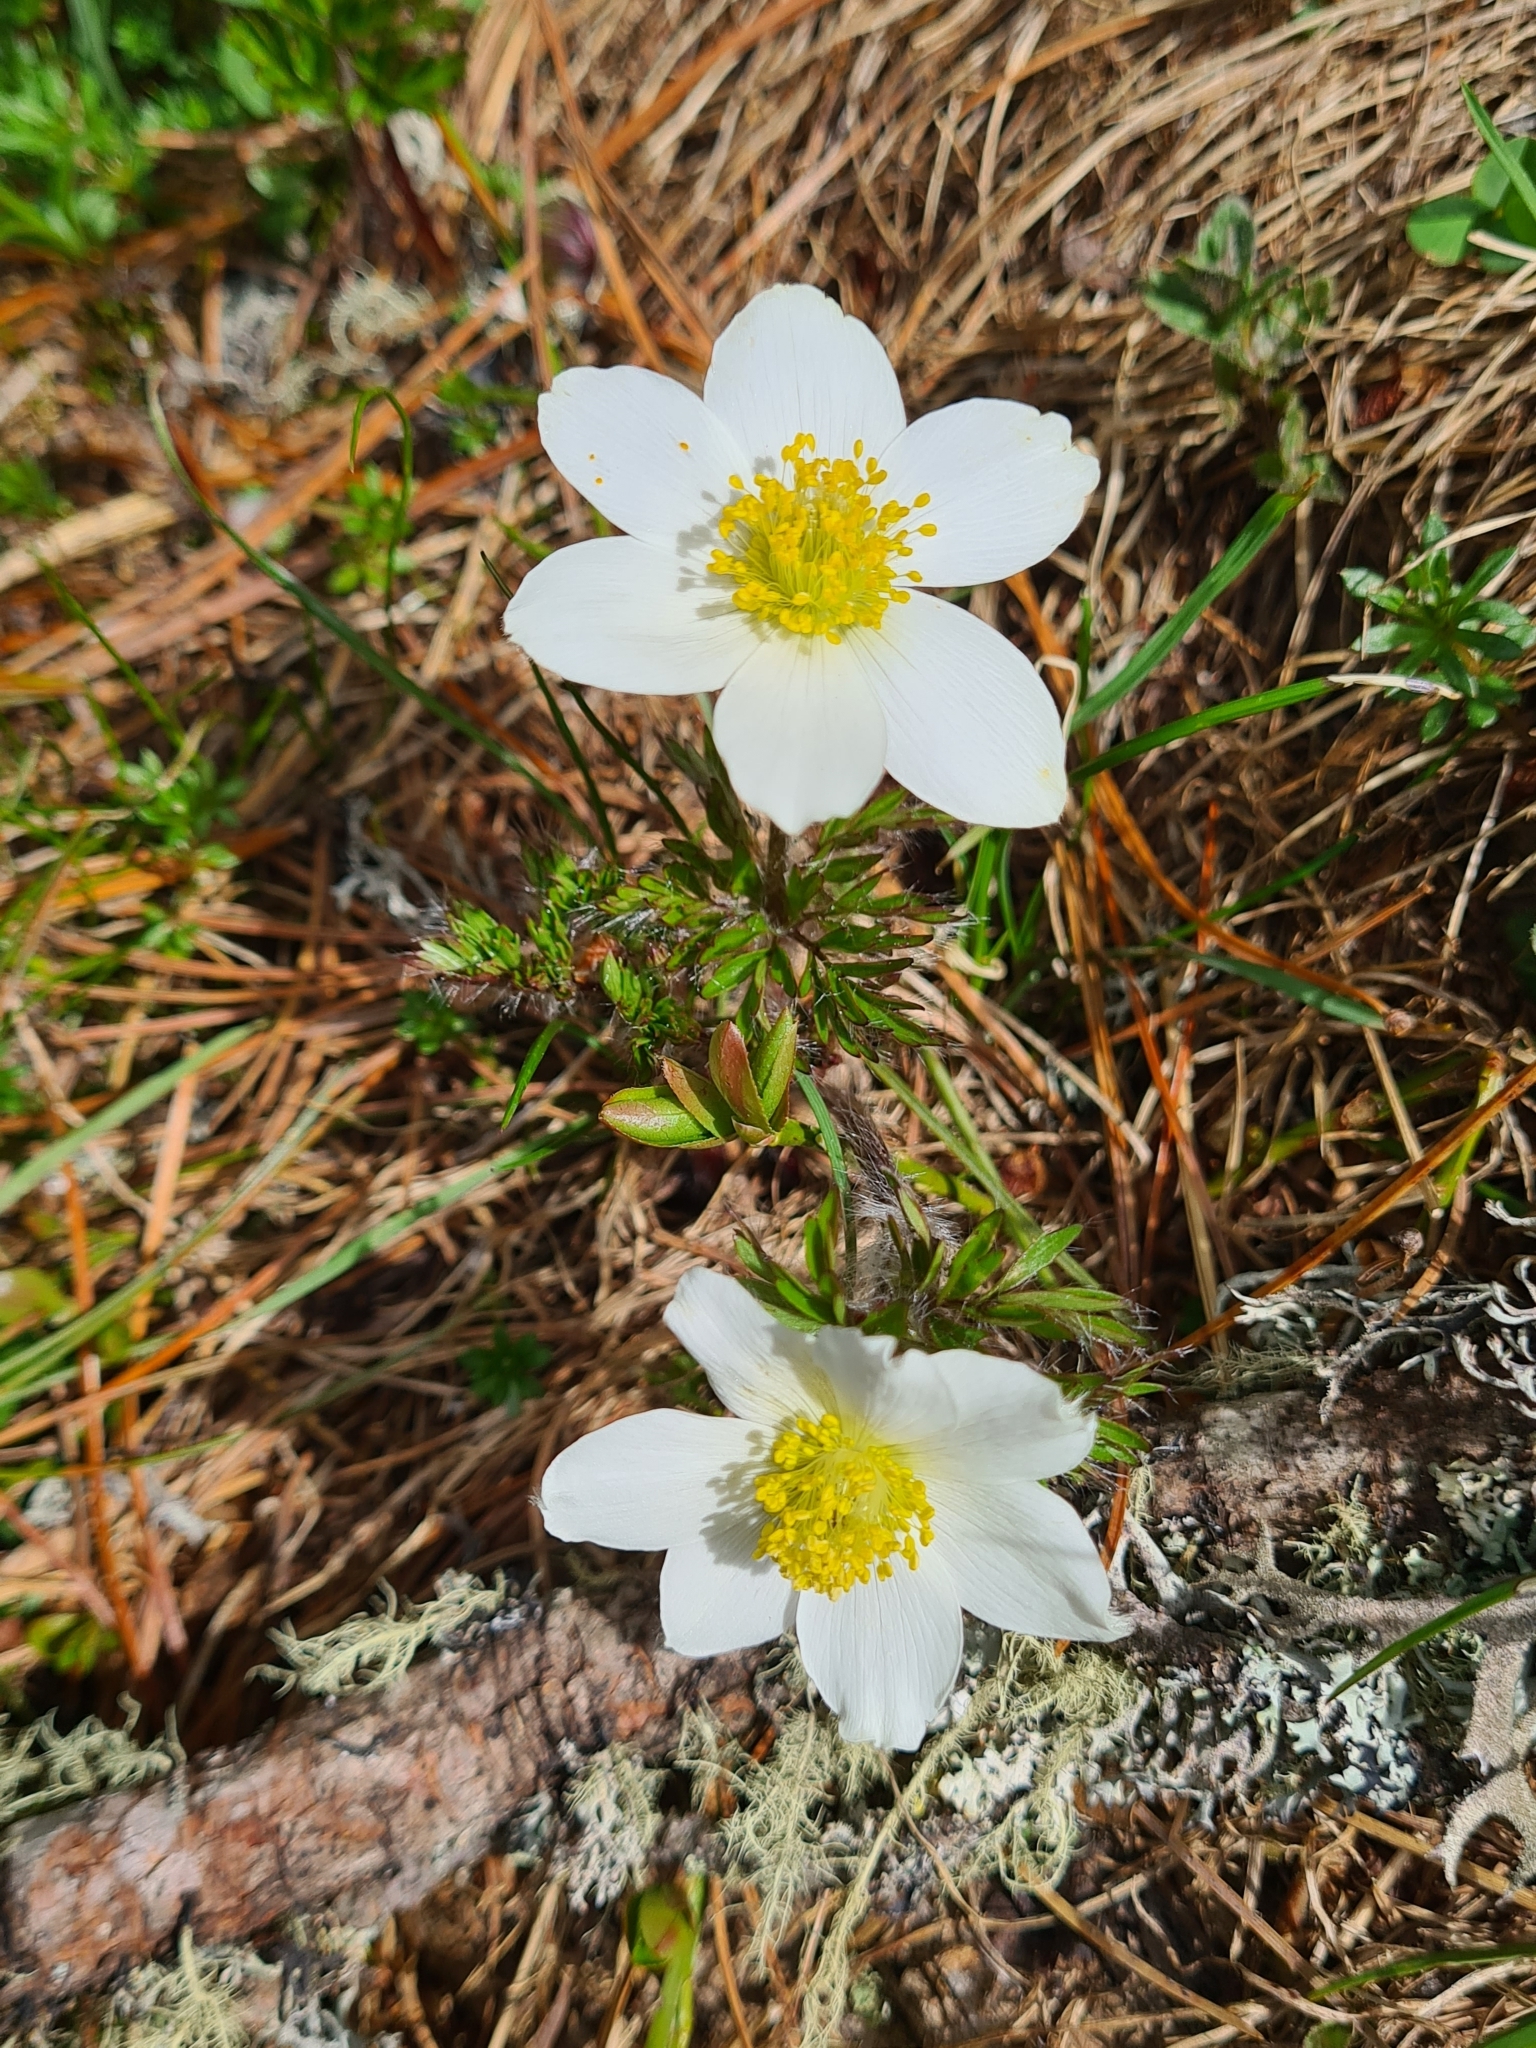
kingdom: Plantae
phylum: Tracheophyta
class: Magnoliopsida
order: Ranunculales
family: Ranunculaceae
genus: Pulsatilla
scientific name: Pulsatilla alpina
